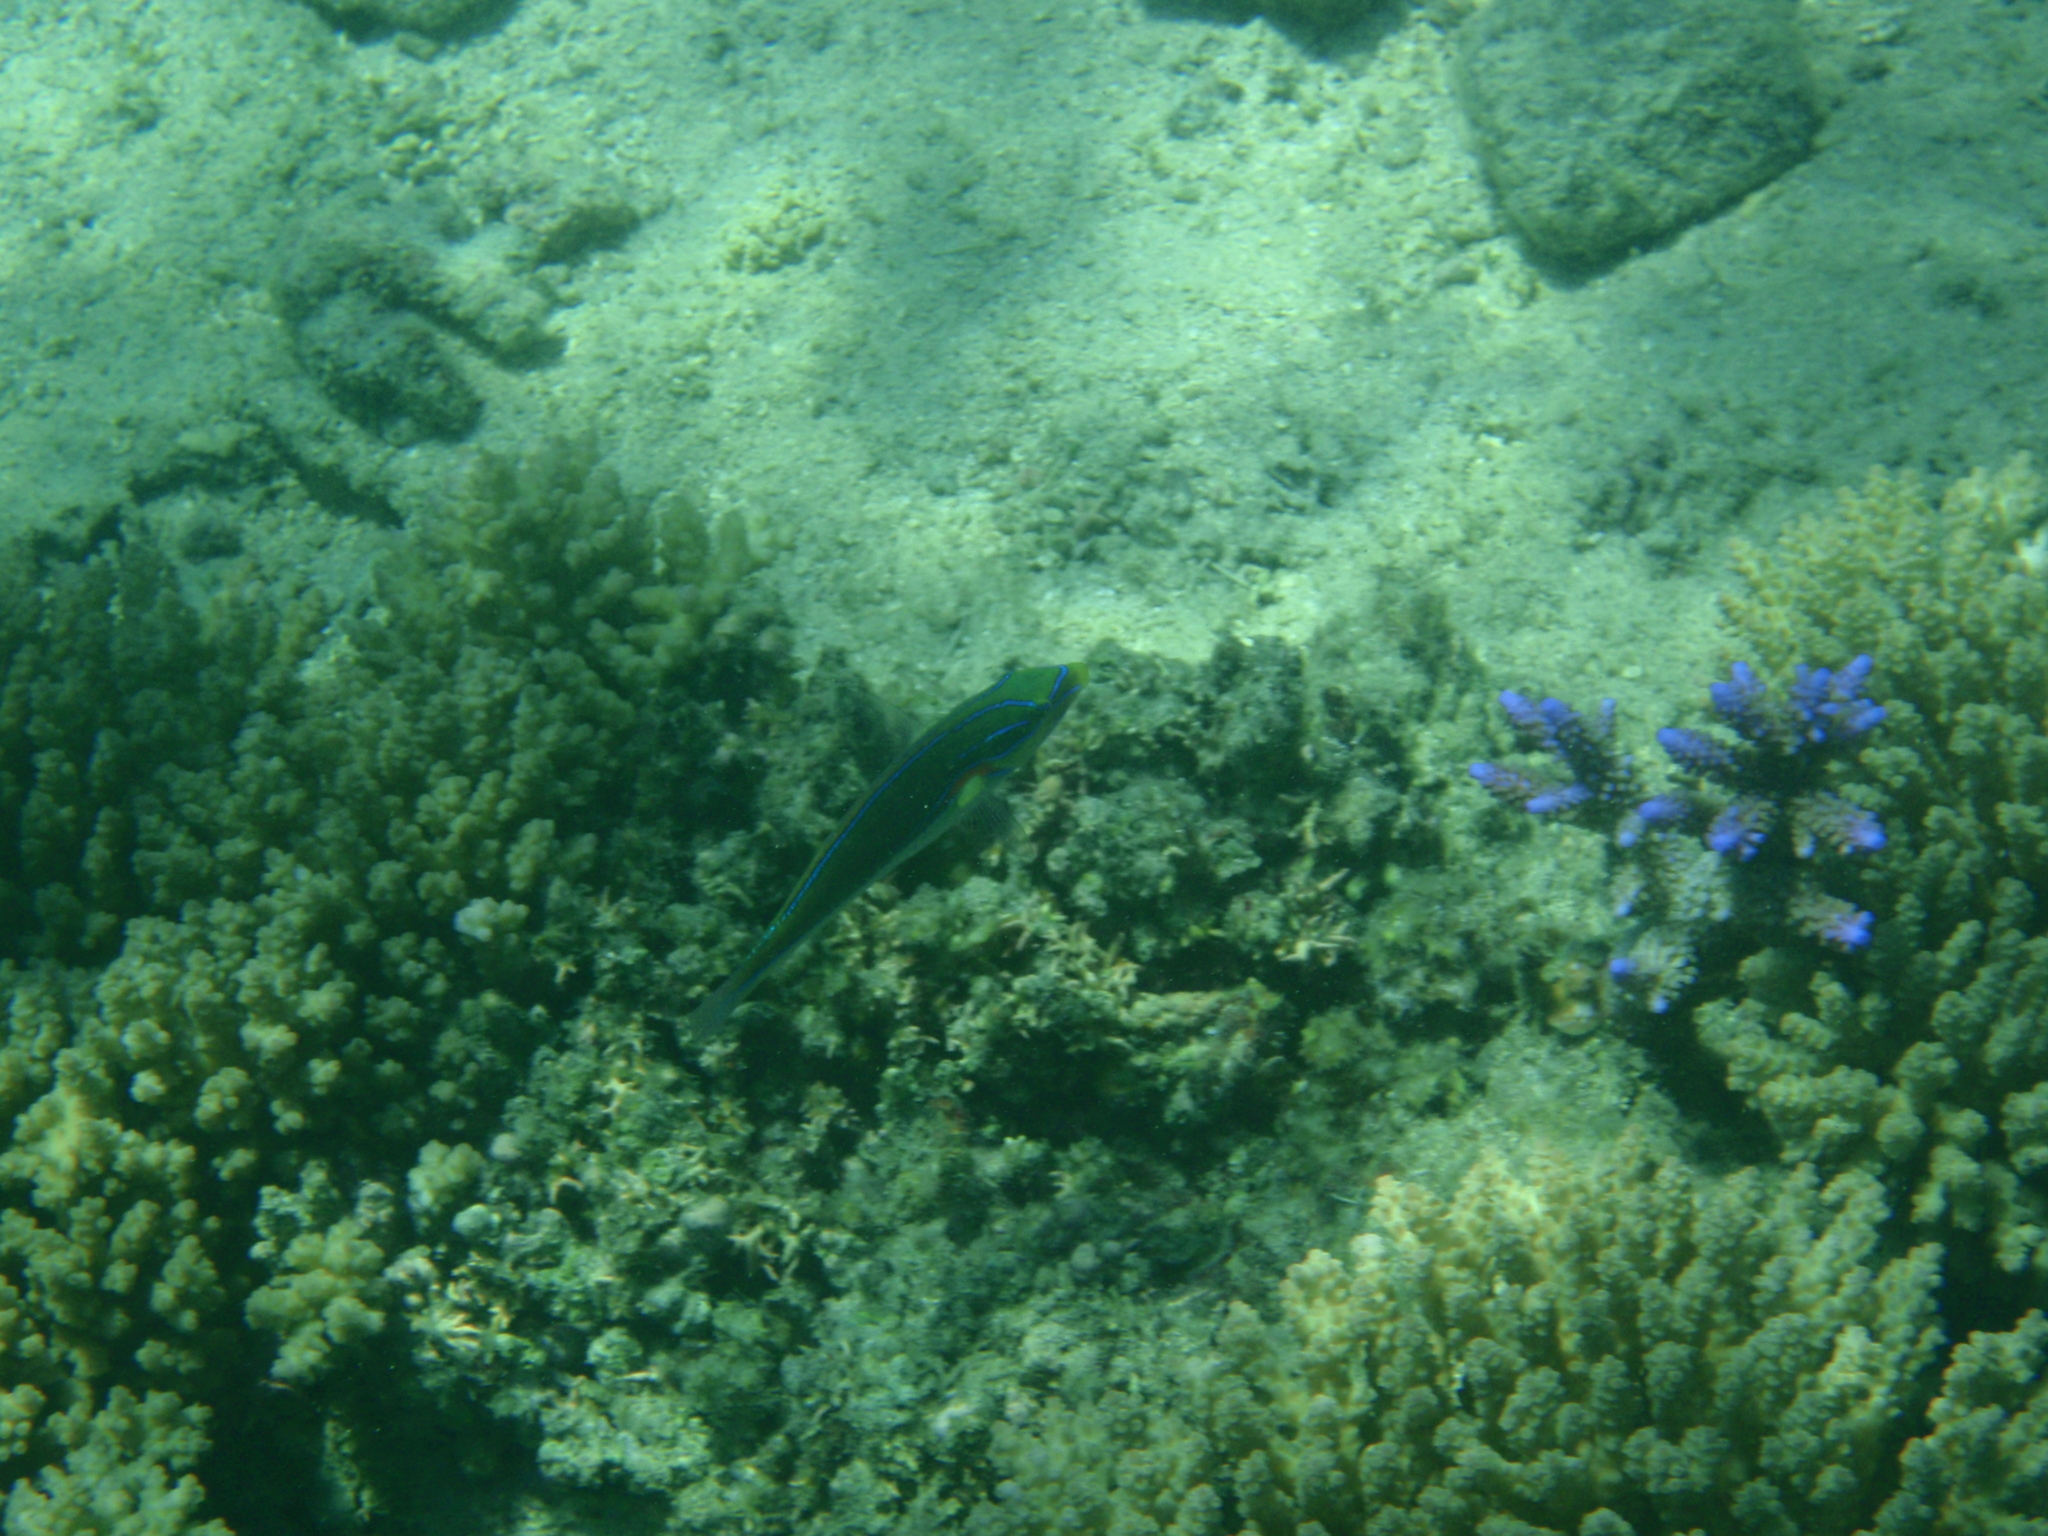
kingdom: Animalia
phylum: Chordata
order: Perciformes
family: Labridae
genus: Stethojulis
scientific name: Stethojulis bandanensis
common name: Red shoulder wrasse
